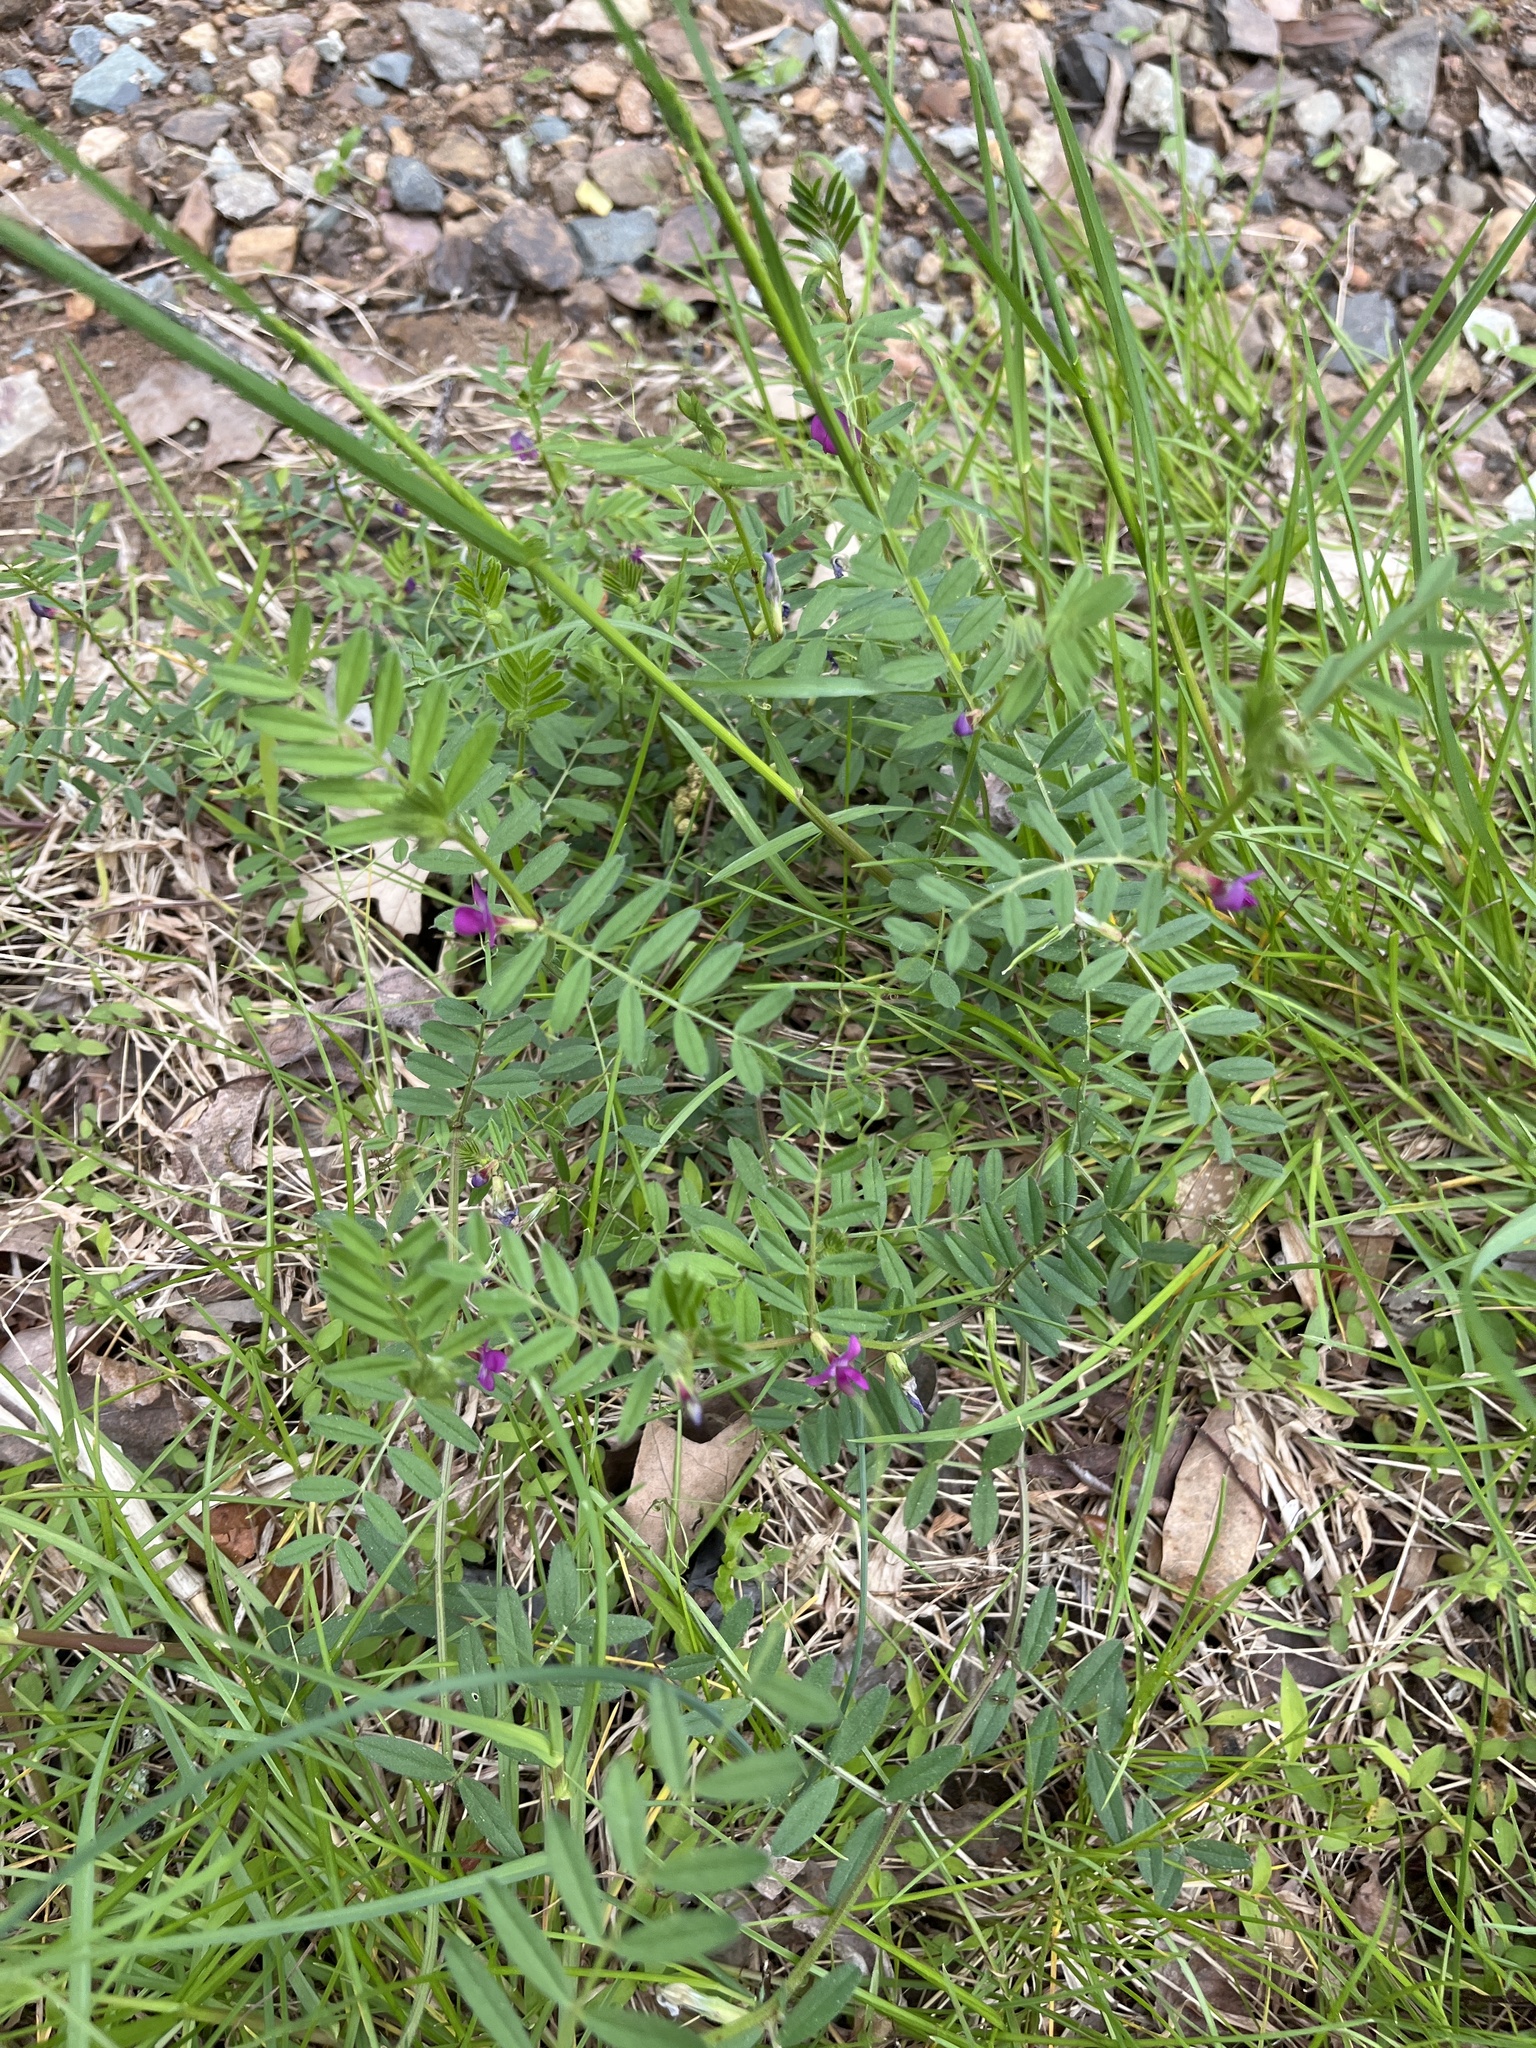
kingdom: Plantae
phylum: Tracheophyta
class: Magnoliopsida
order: Fabales
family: Fabaceae
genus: Vicia
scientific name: Vicia sativa
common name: Garden vetch
